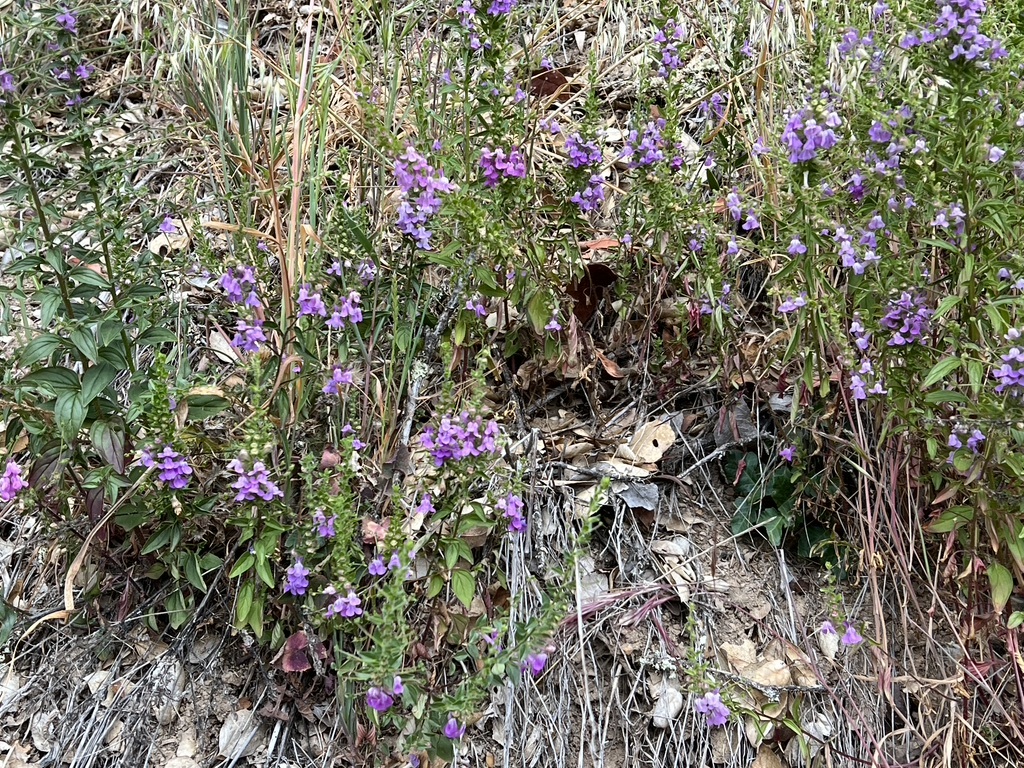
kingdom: Plantae
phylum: Tracheophyta
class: Magnoliopsida
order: Lamiales
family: Plantaginaceae
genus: Sairocarpus
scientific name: Sairocarpus vexillocalyculatus
